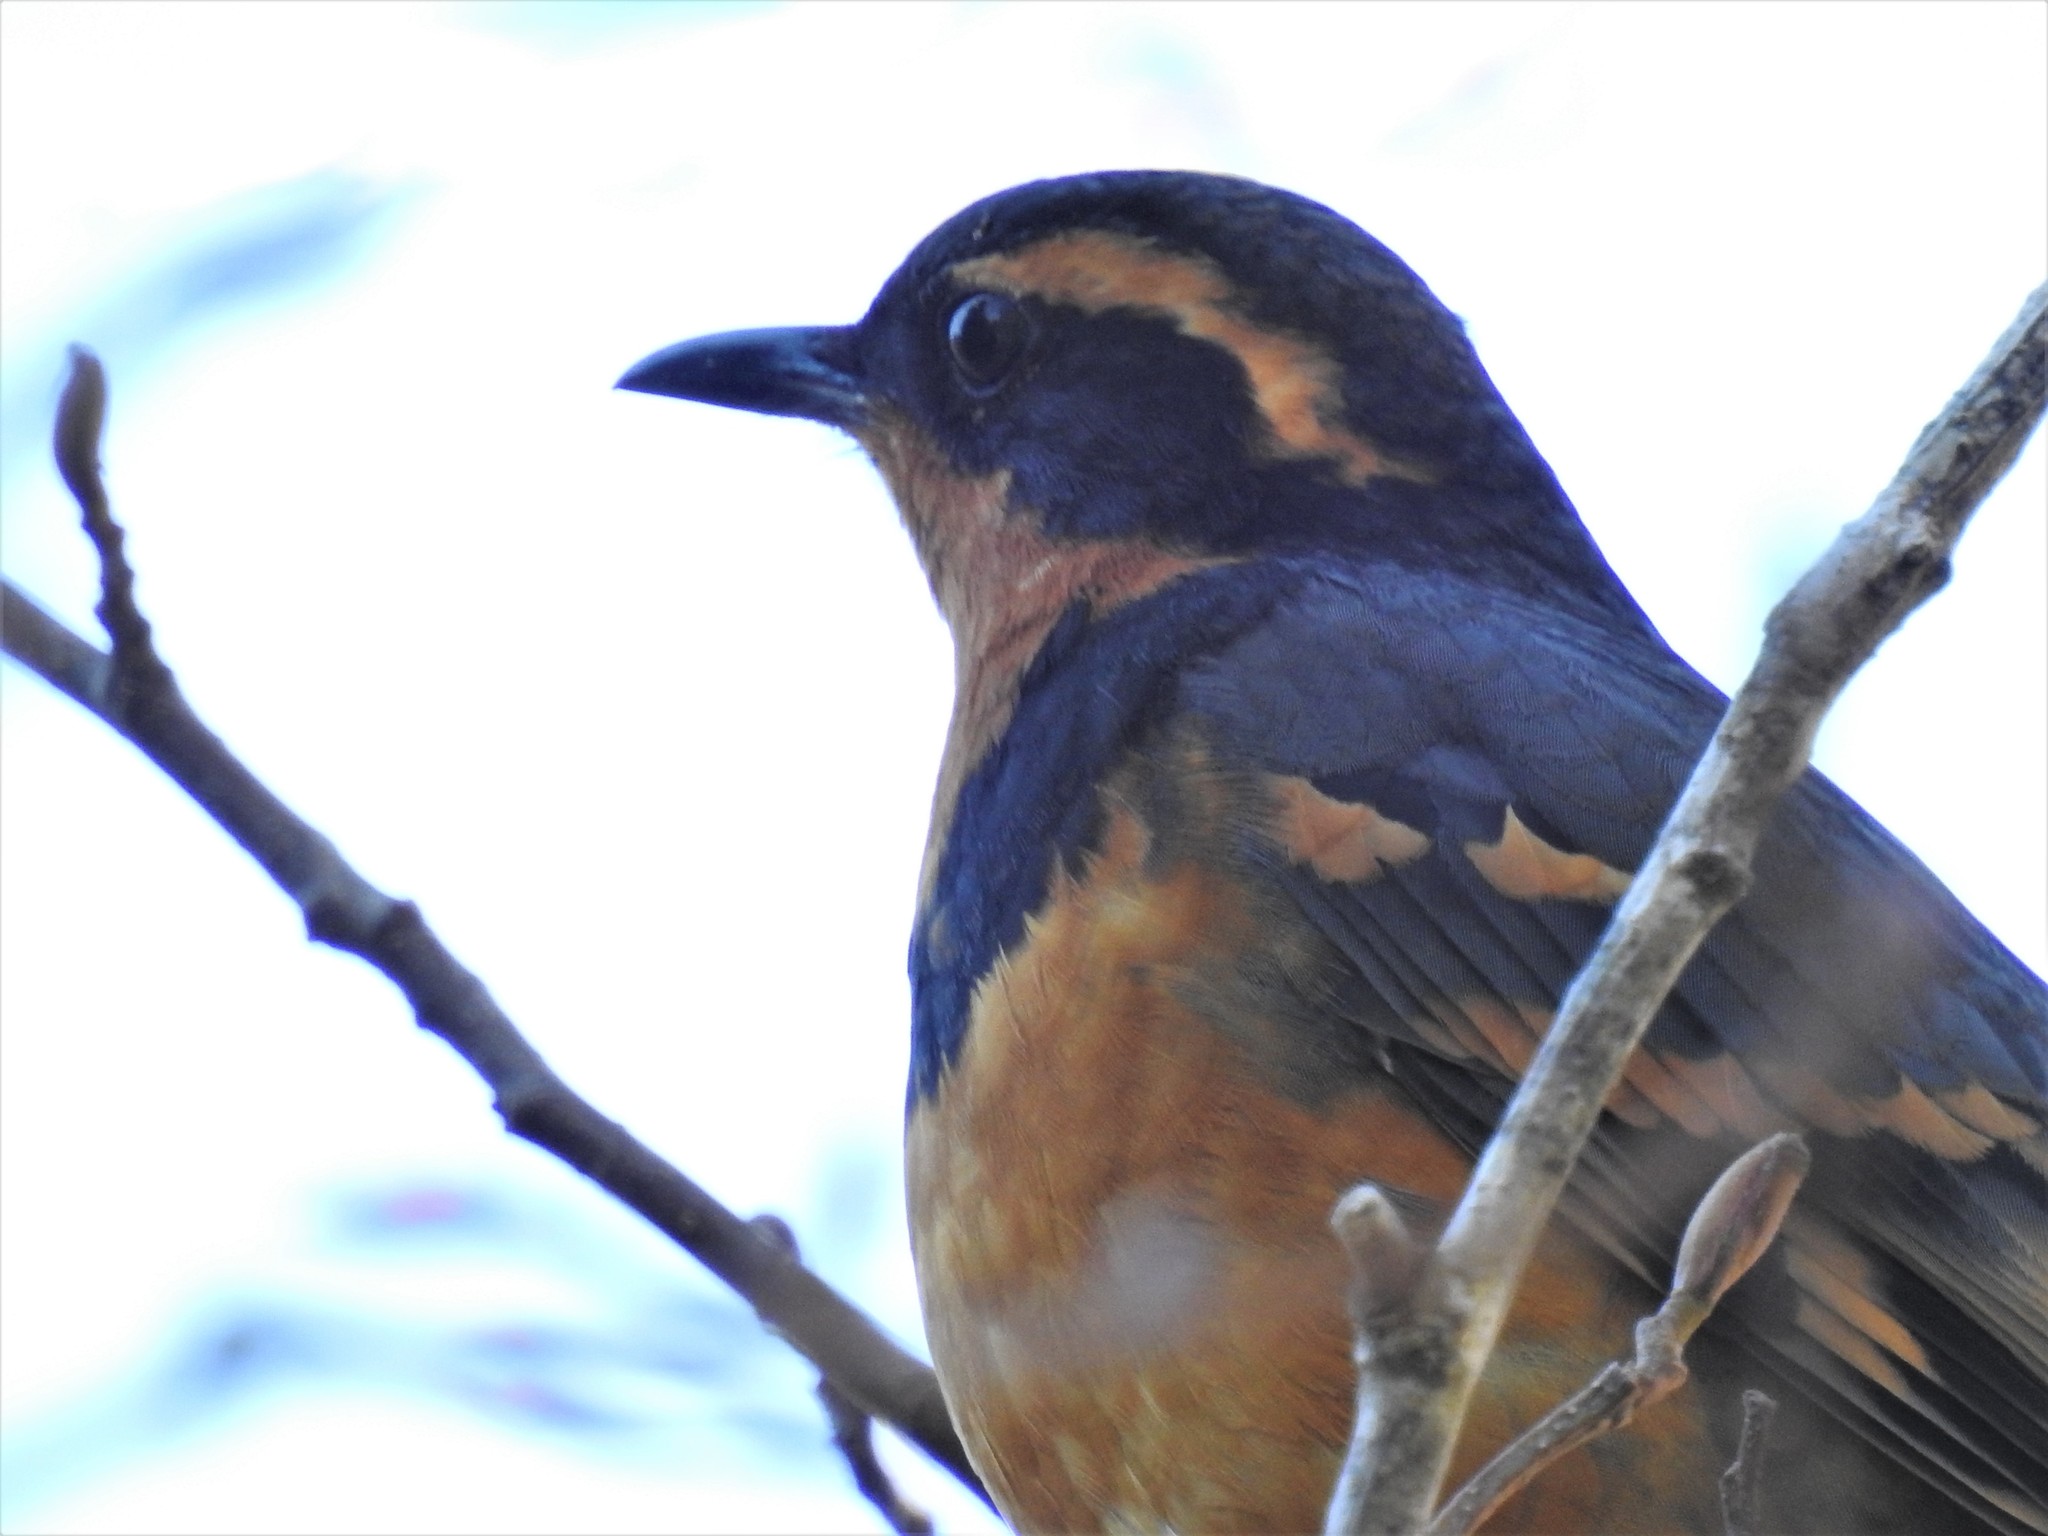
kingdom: Animalia
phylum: Chordata
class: Aves
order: Passeriformes
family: Turdidae
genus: Ixoreus
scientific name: Ixoreus naevius
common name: Varied thrush
